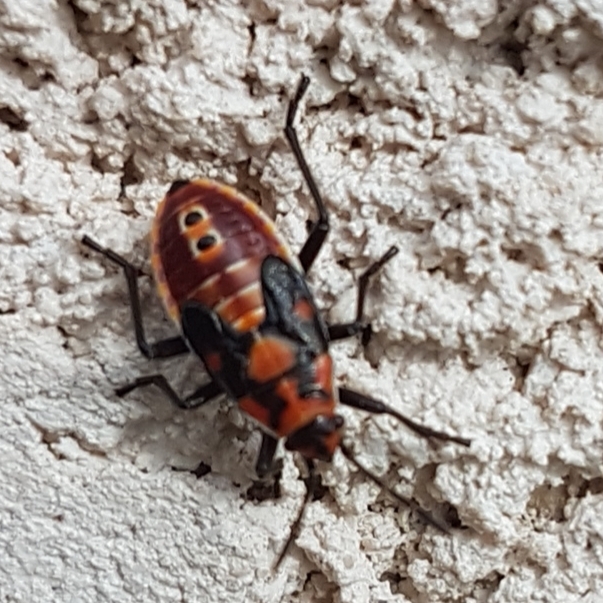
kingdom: Animalia
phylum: Arthropoda
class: Insecta
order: Hemiptera
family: Lygaeidae
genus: Spilostethus
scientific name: Spilostethus pandurus
